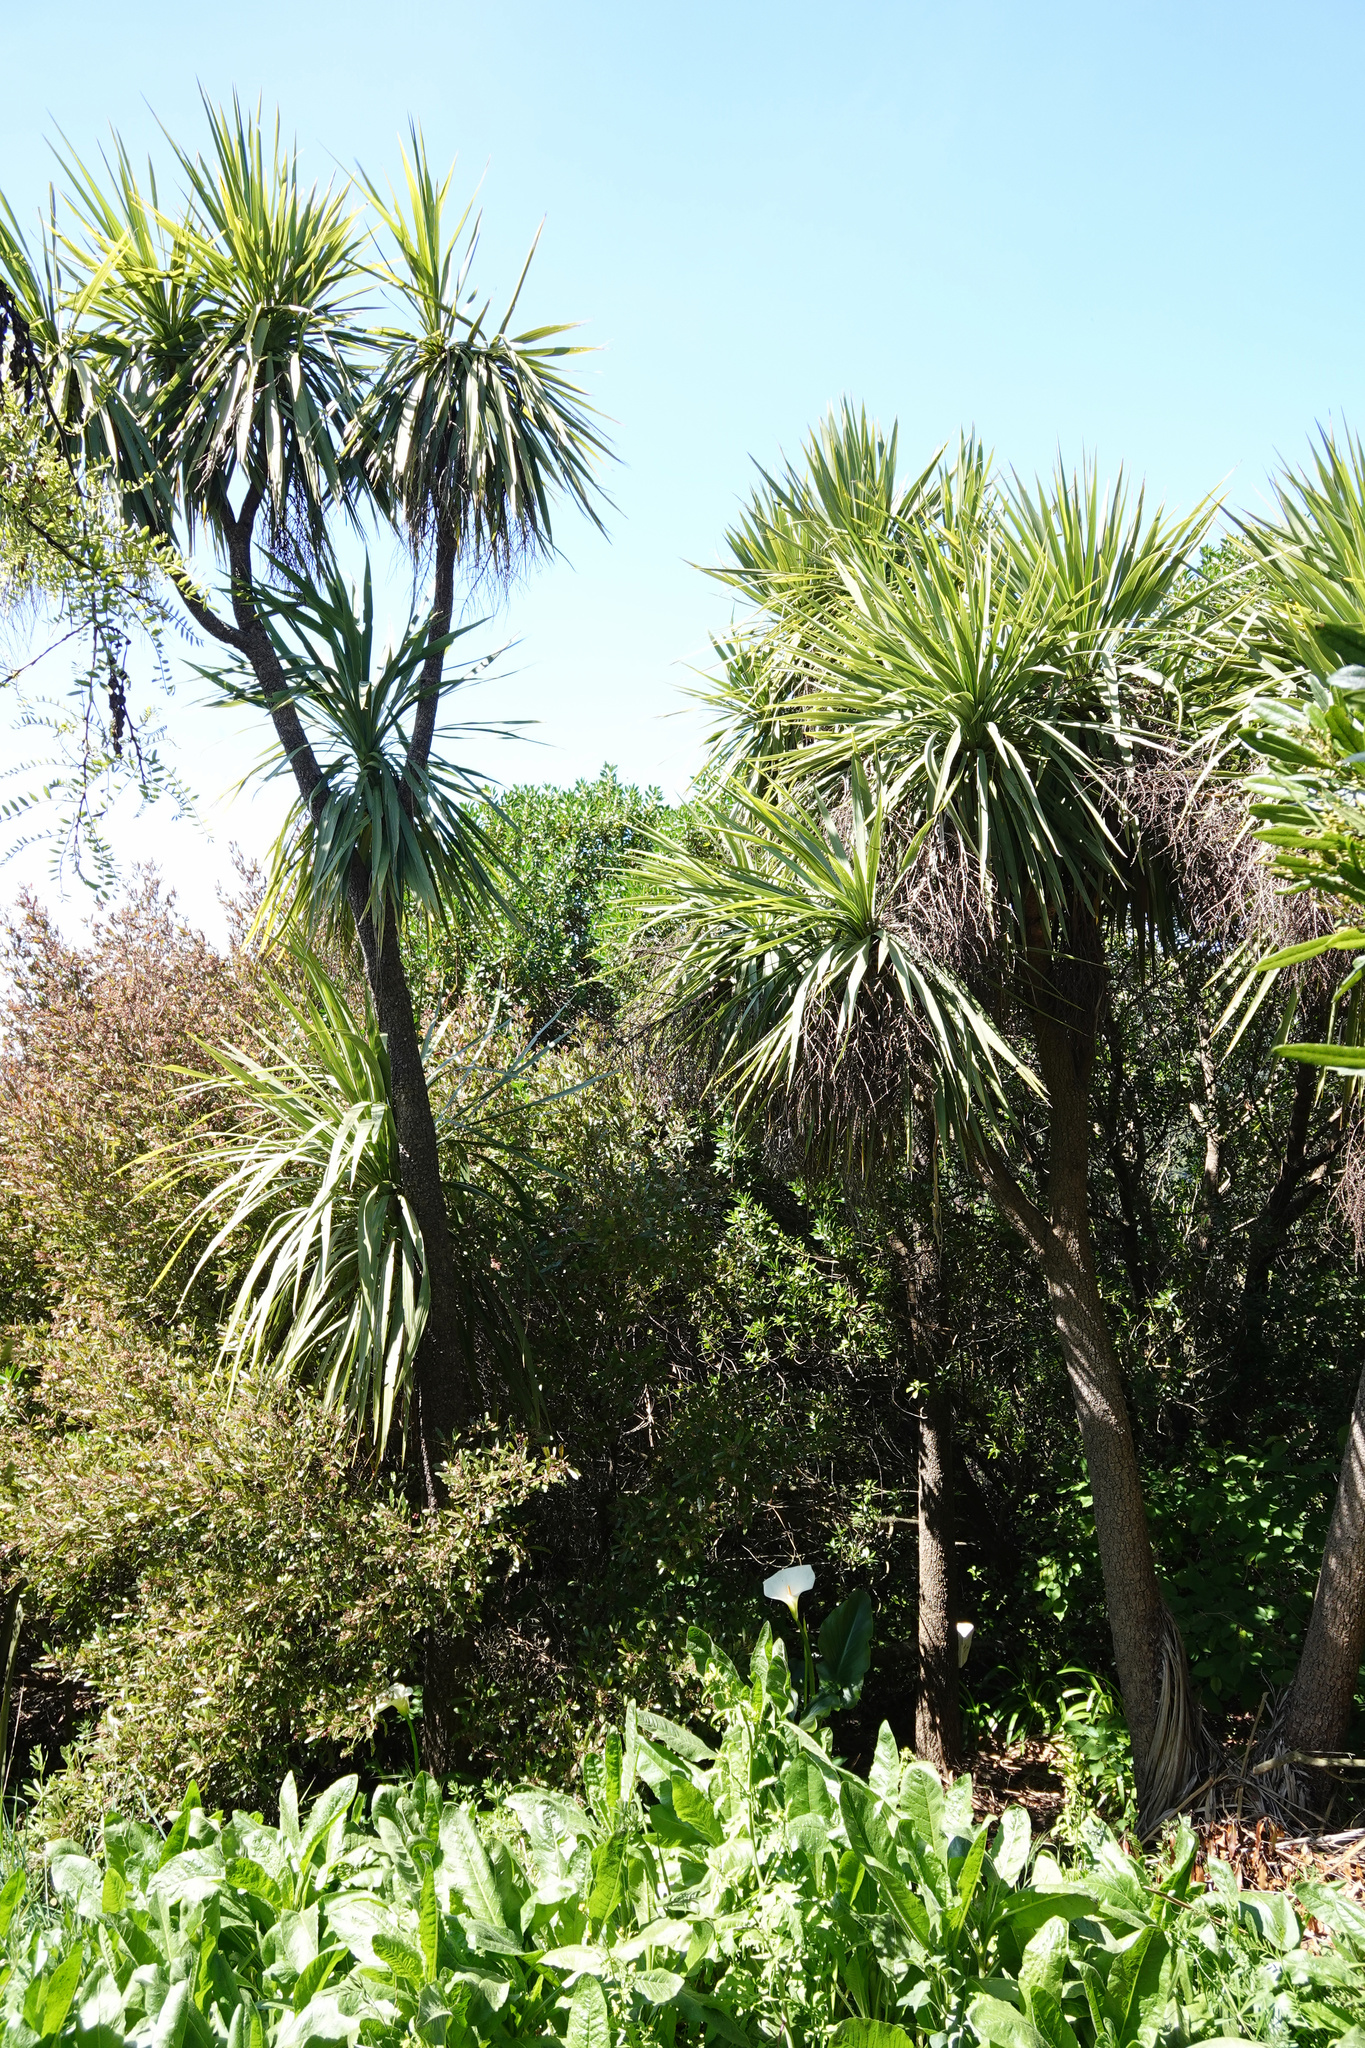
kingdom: Plantae
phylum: Tracheophyta
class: Liliopsida
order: Asparagales
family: Asparagaceae
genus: Cordyline
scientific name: Cordyline australis
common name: Cabbage-palm
